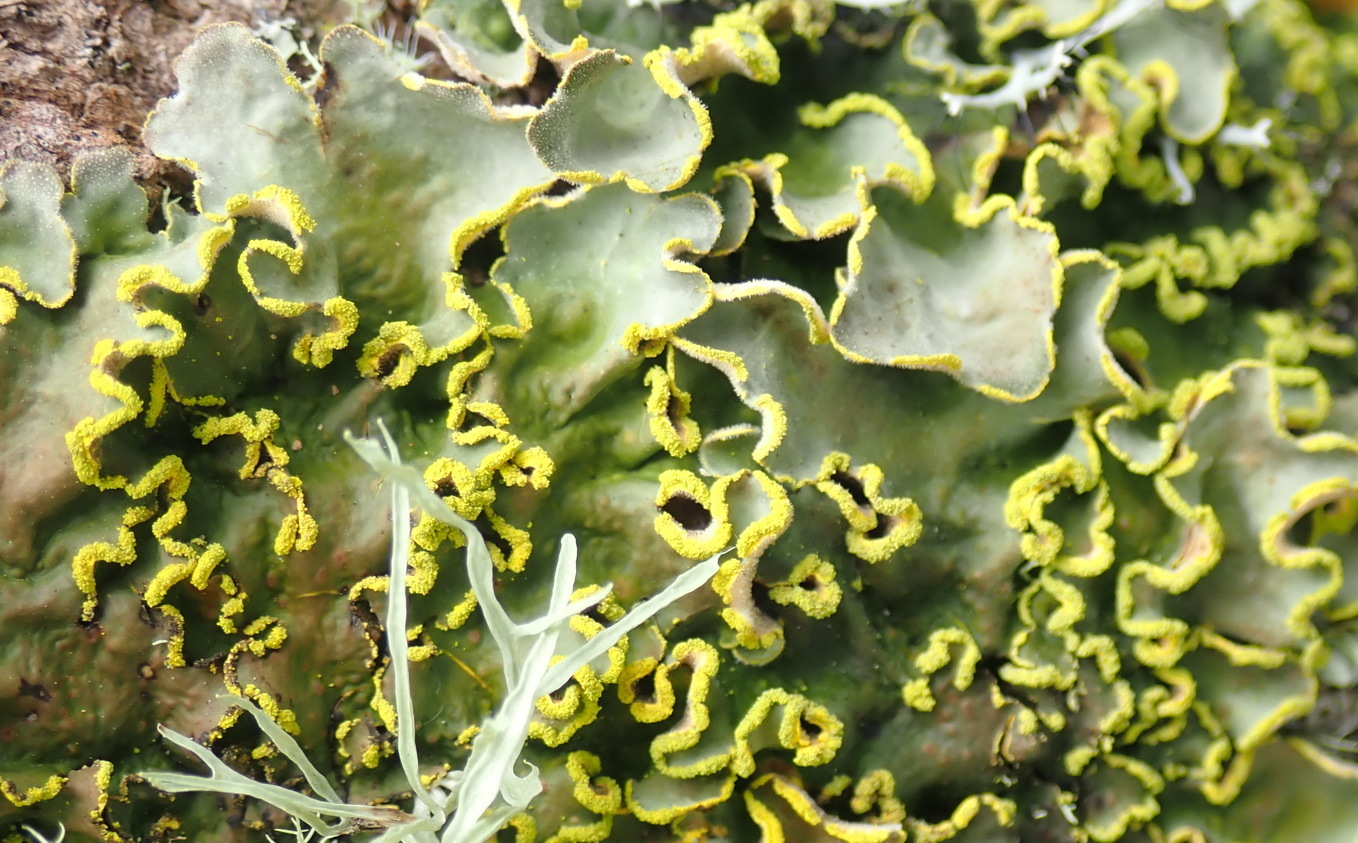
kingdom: Fungi
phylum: Ascomycota
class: Lecanoromycetes
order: Peltigerales
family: Lobariaceae
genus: Pseudocyphellaria
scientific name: Pseudocyphellaria aurata
